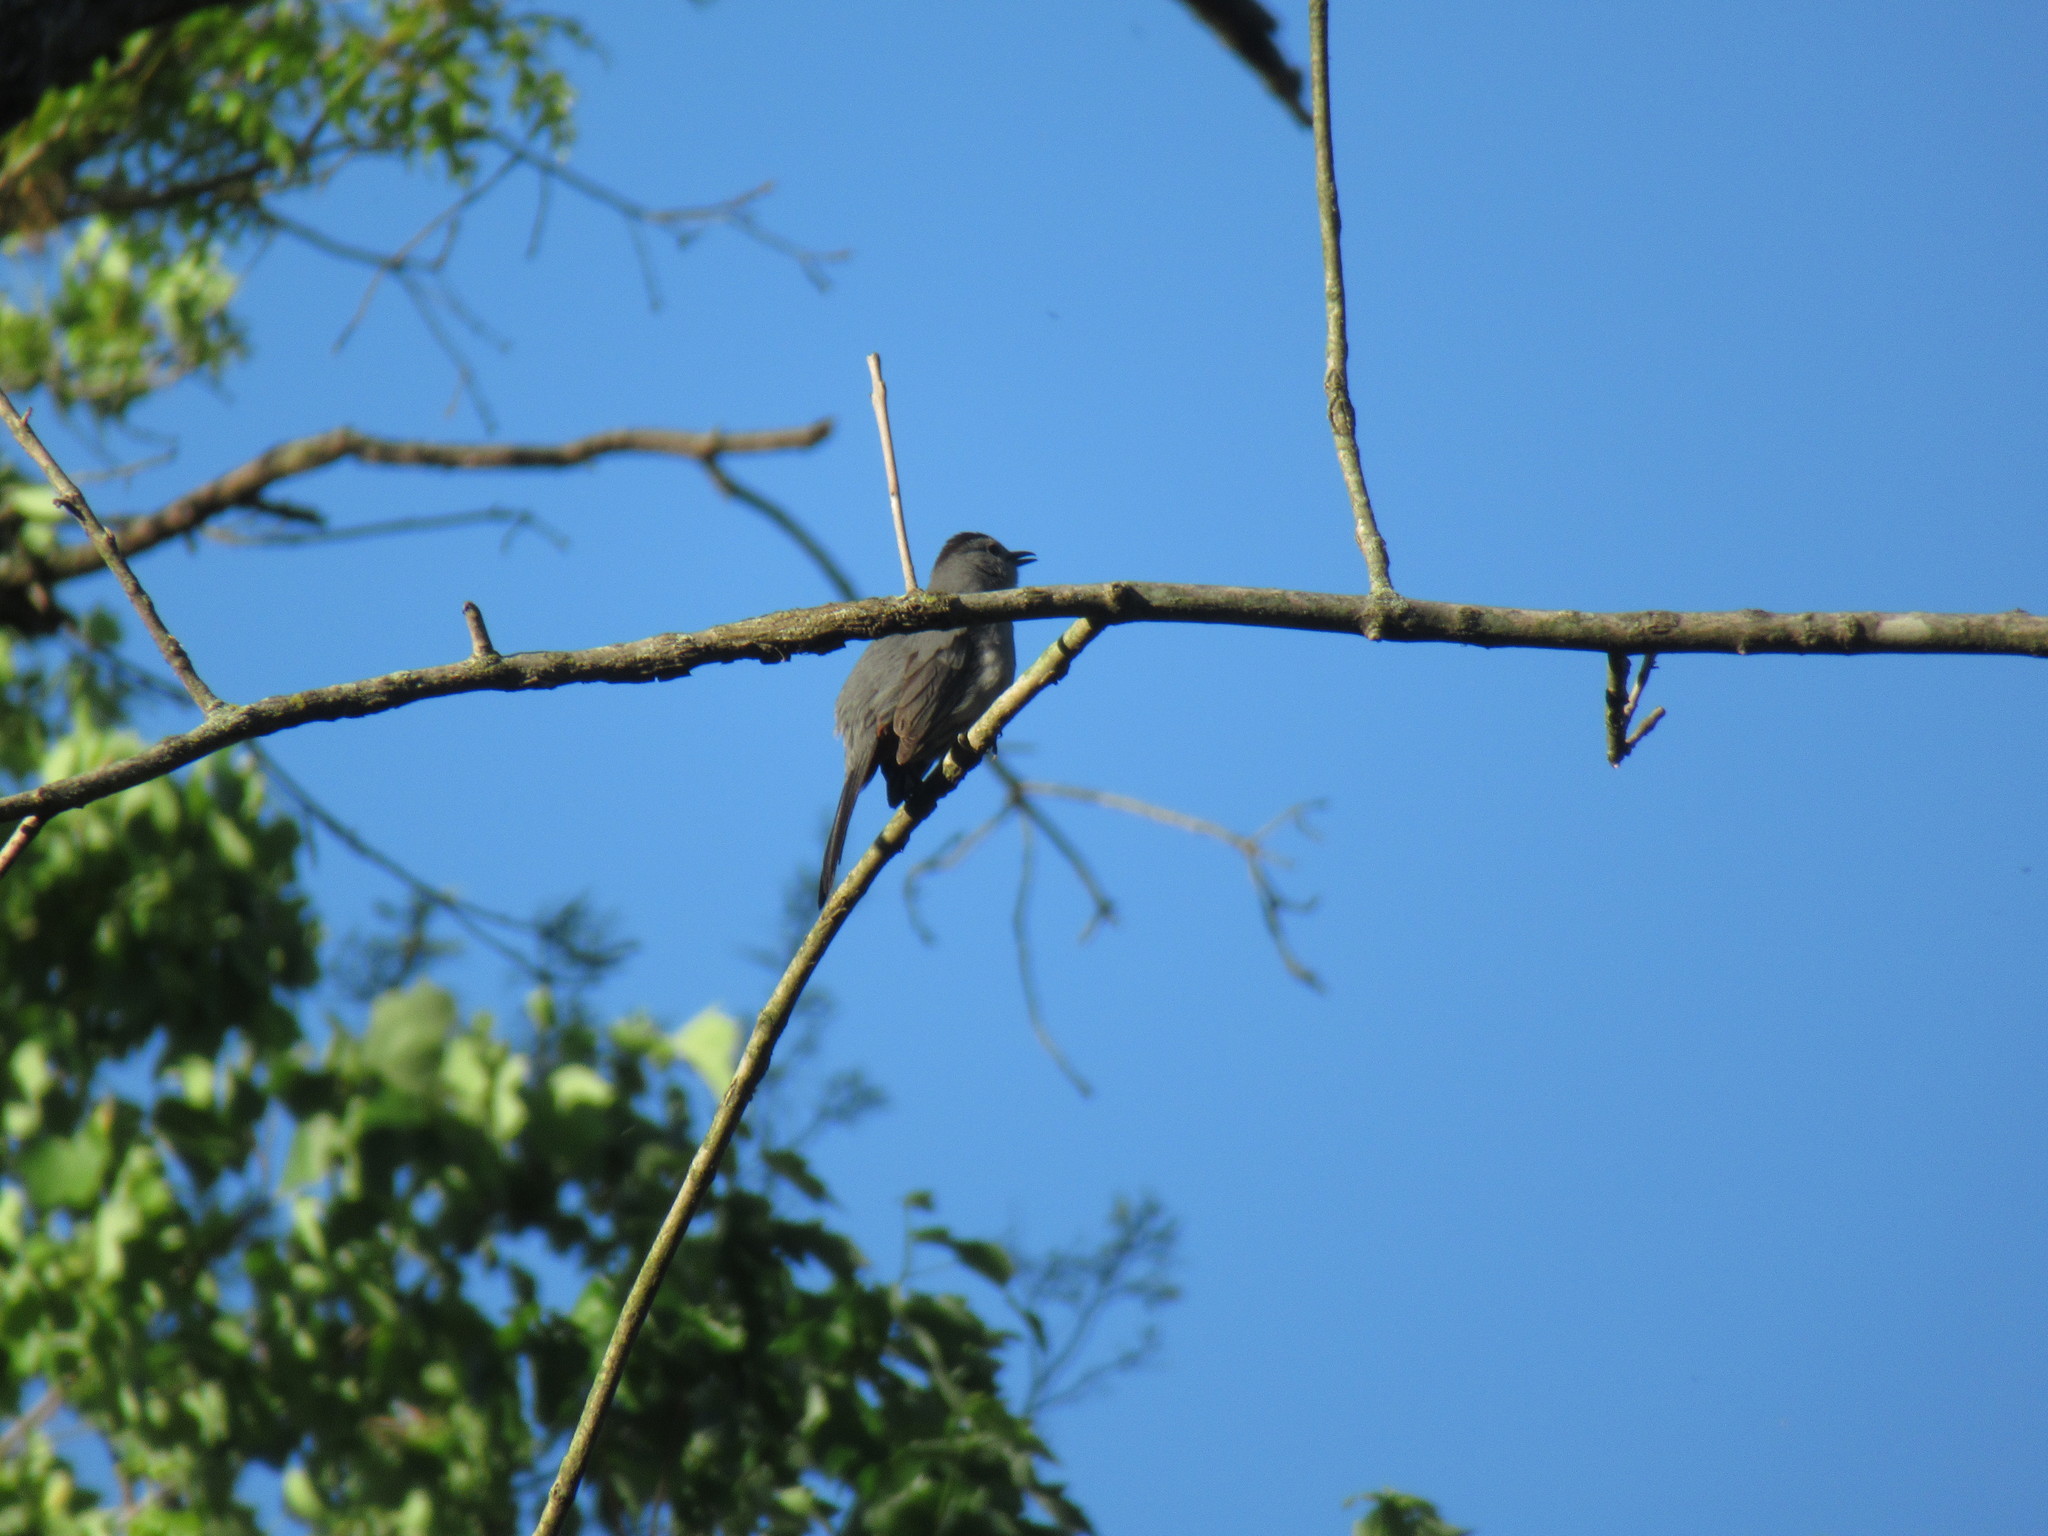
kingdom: Animalia
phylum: Chordata
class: Aves
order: Passeriformes
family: Mimidae
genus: Dumetella
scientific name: Dumetella carolinensis
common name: Gray catbird
